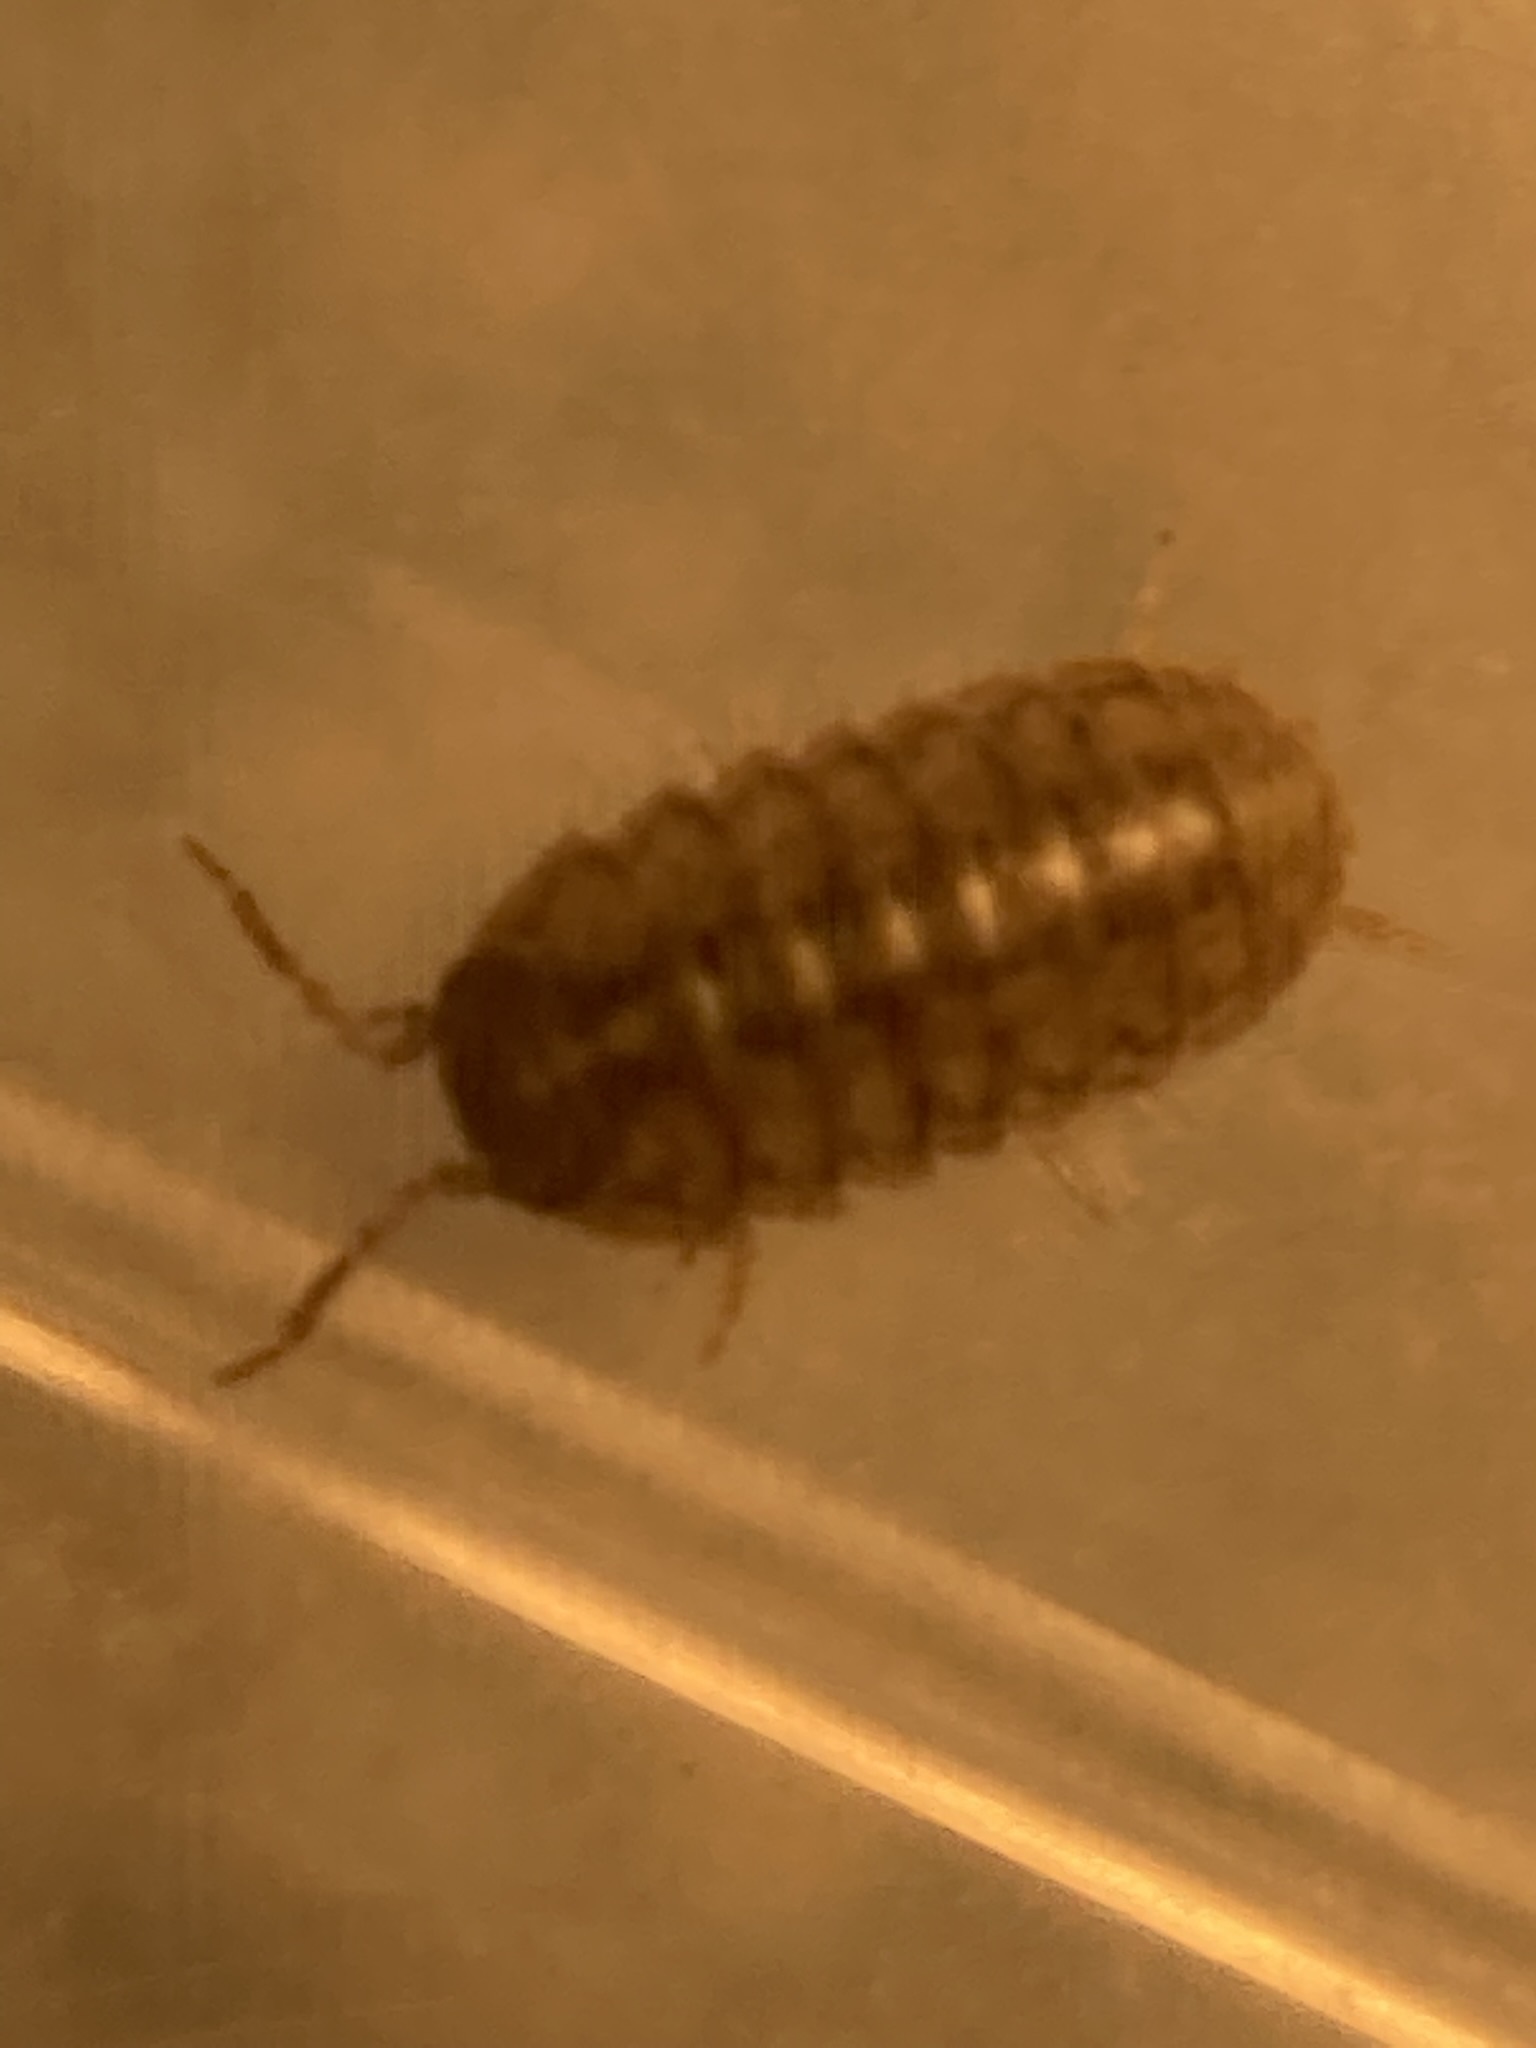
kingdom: Animalia
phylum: Arthropoda
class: Malacostraca
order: Isopoda
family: Armadillidiidae
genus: Armadillidium
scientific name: Armadillidium vulgare
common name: Common pill woodlouse
